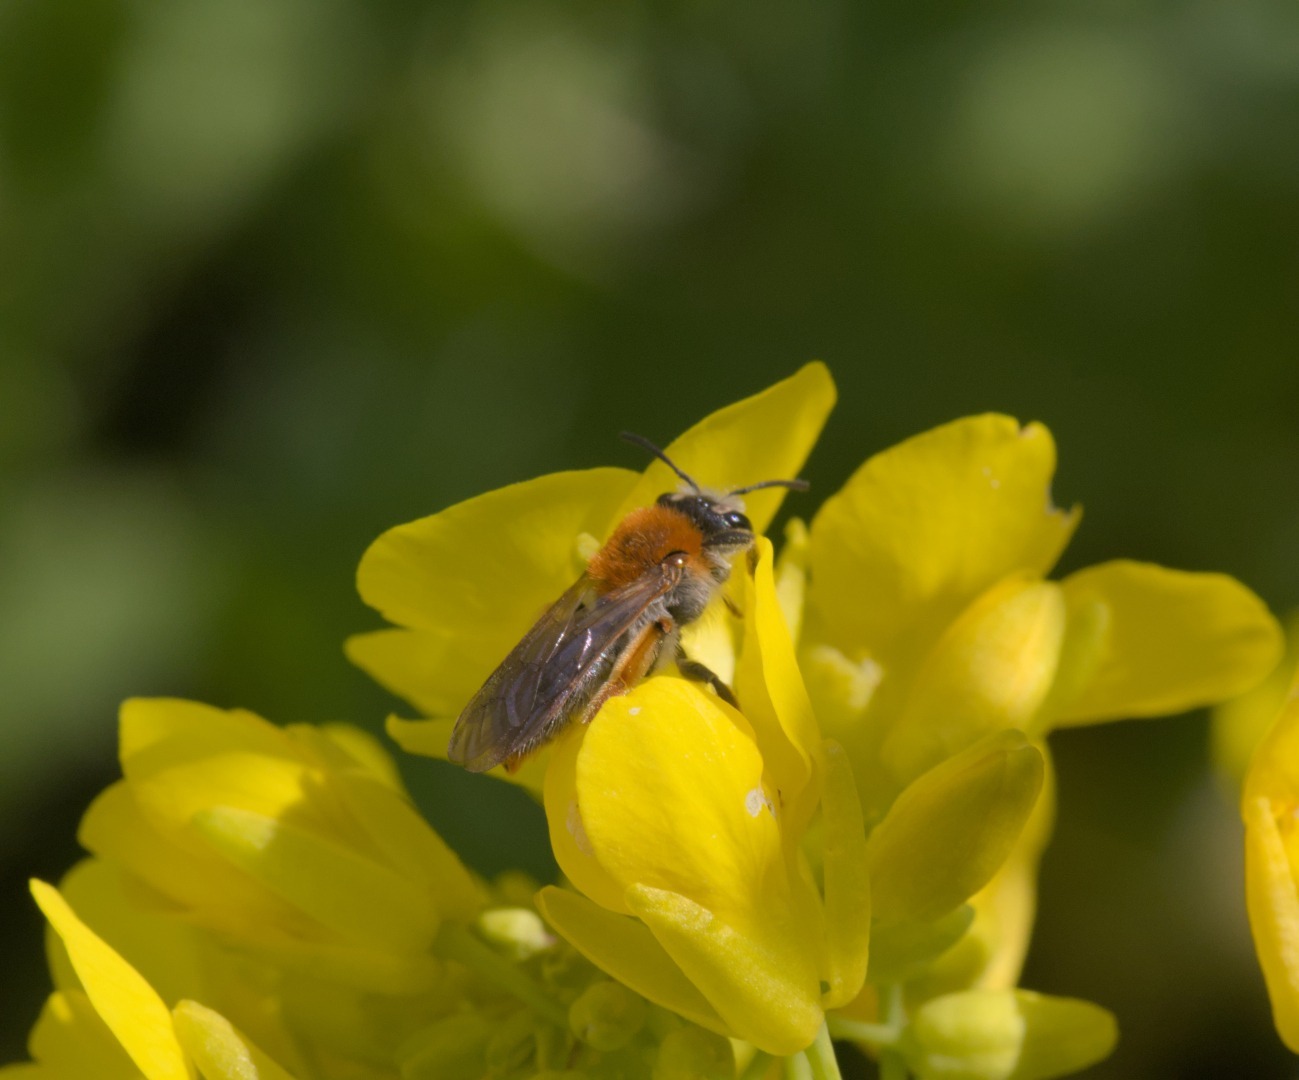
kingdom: Animalia
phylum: Arthropoda
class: Insecta
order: Hymenoptera
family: Andrenidae
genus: Andrena
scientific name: Andrena haemorrhoa
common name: Early mining bee
